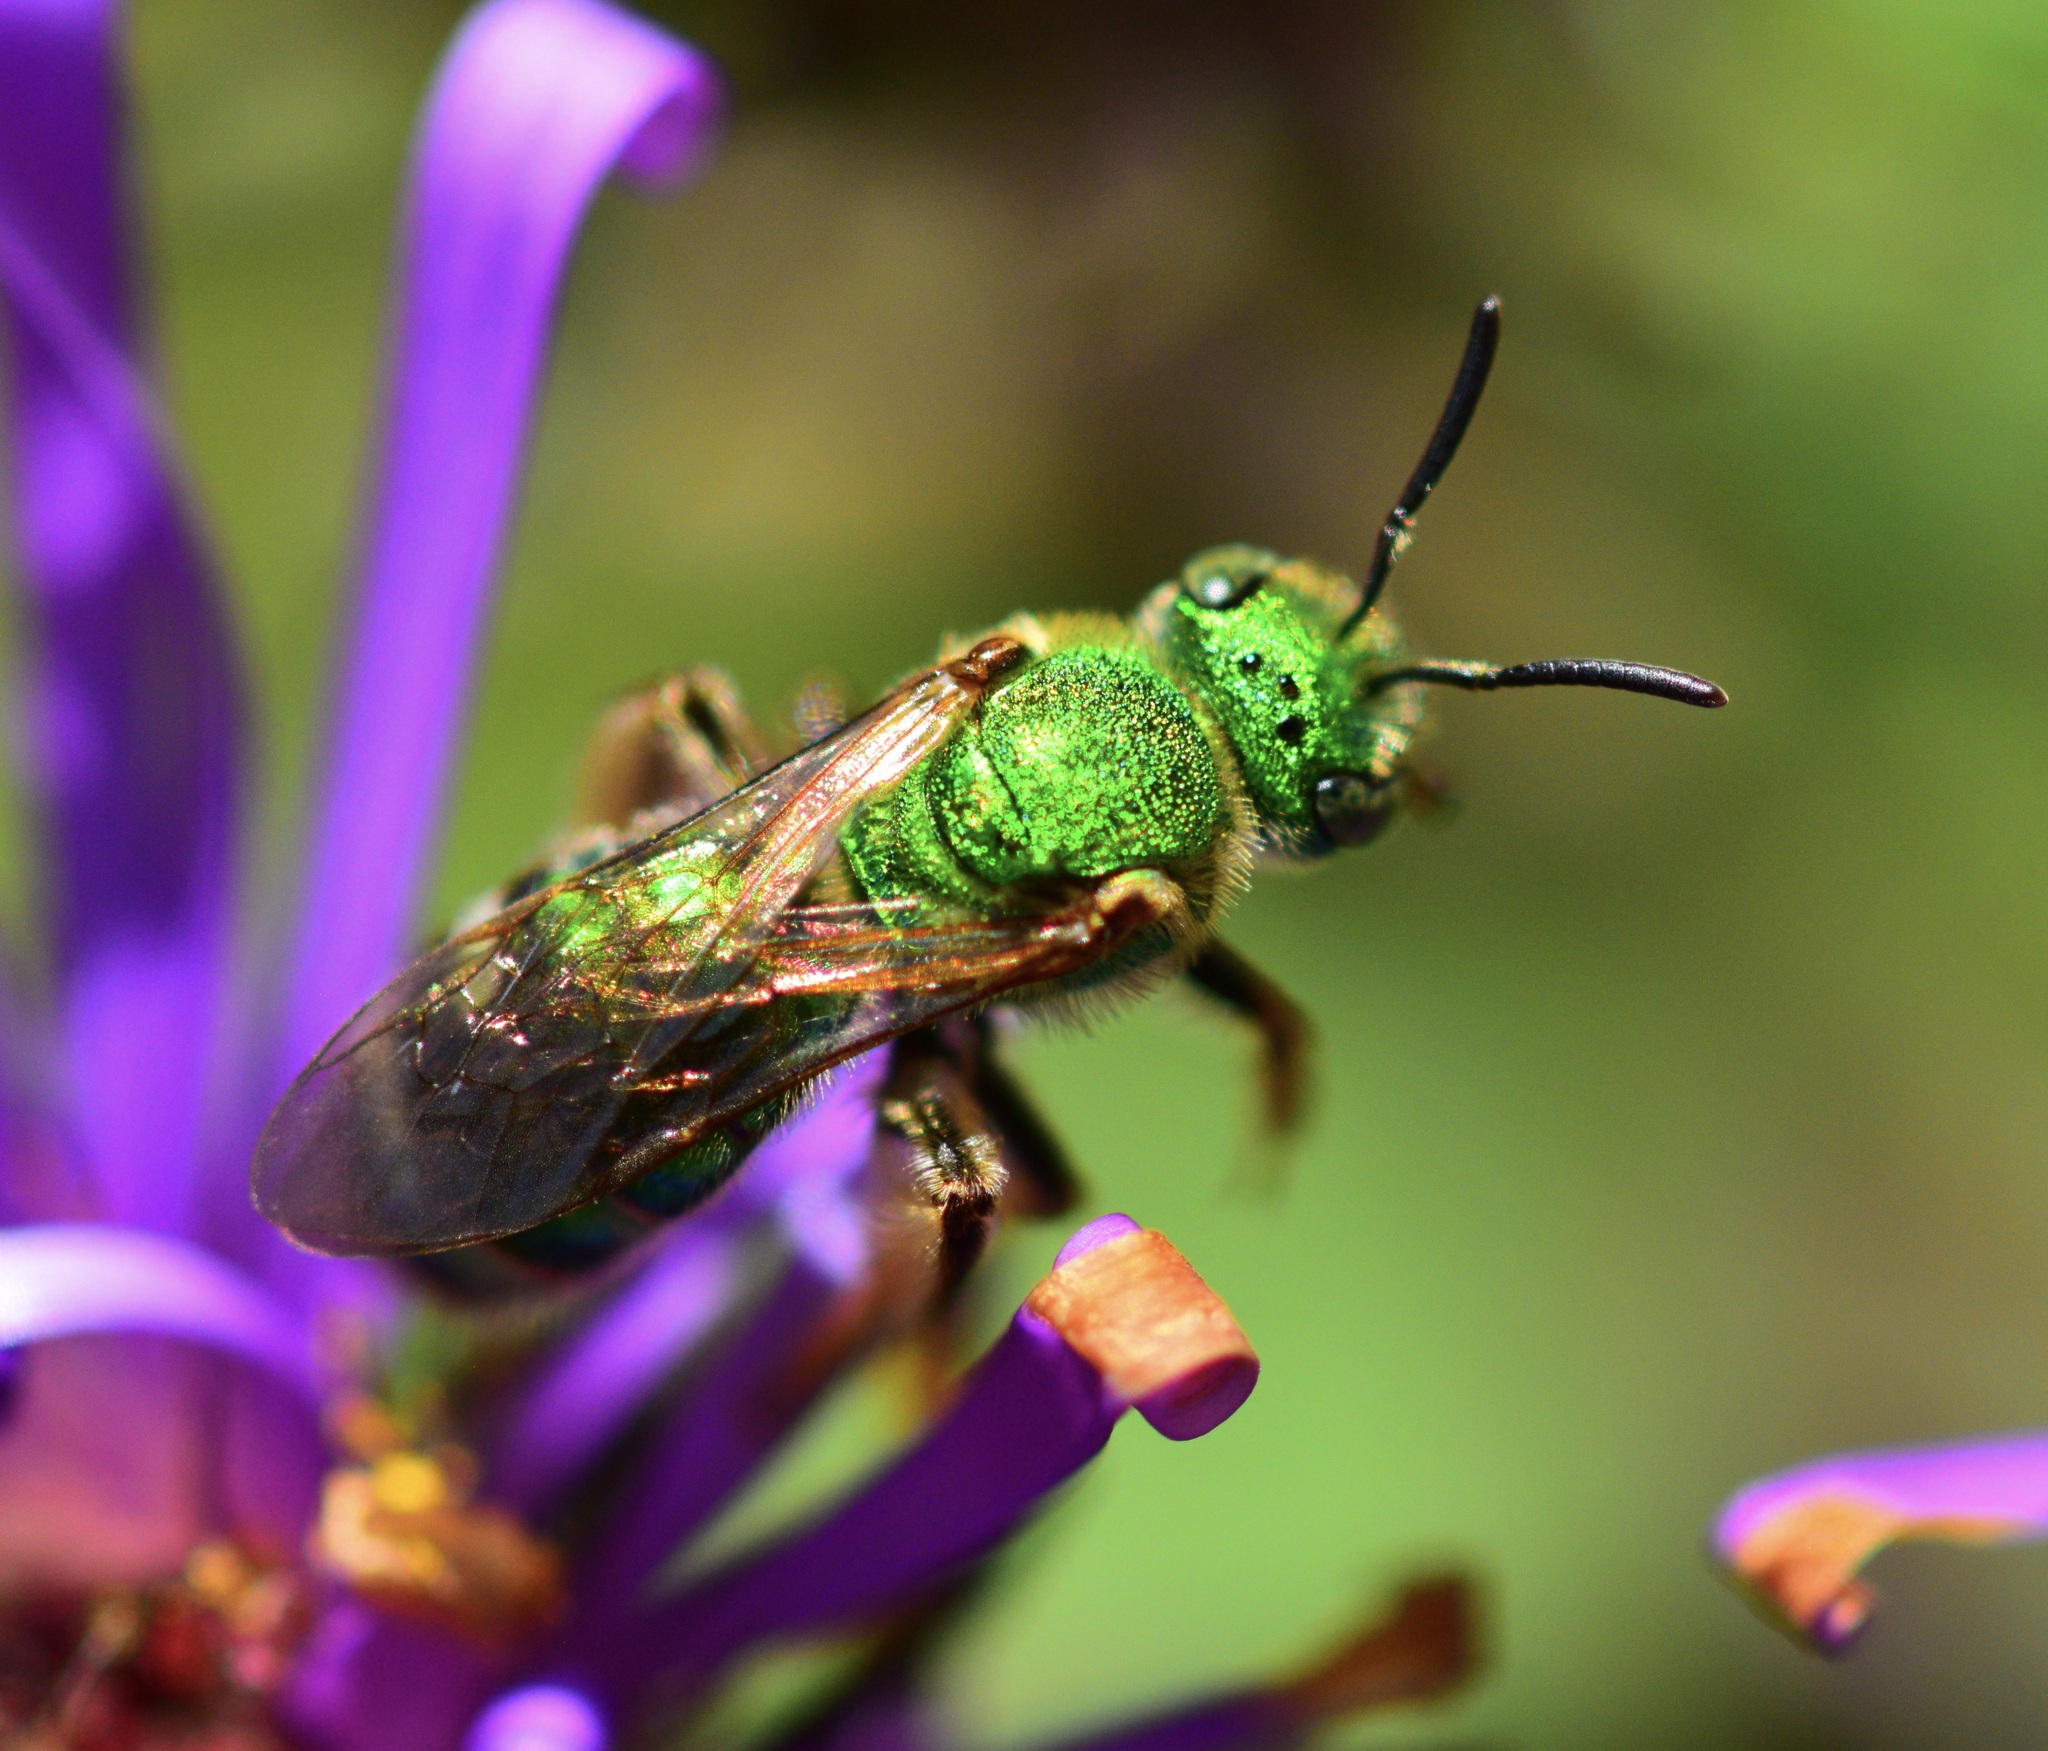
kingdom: Animalia
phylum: Arthropoda
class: Insecta
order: Hymenoptera
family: Halictidae
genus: Agapostemon
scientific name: Agapostemon sericeus
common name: Silky striped sweat bee
